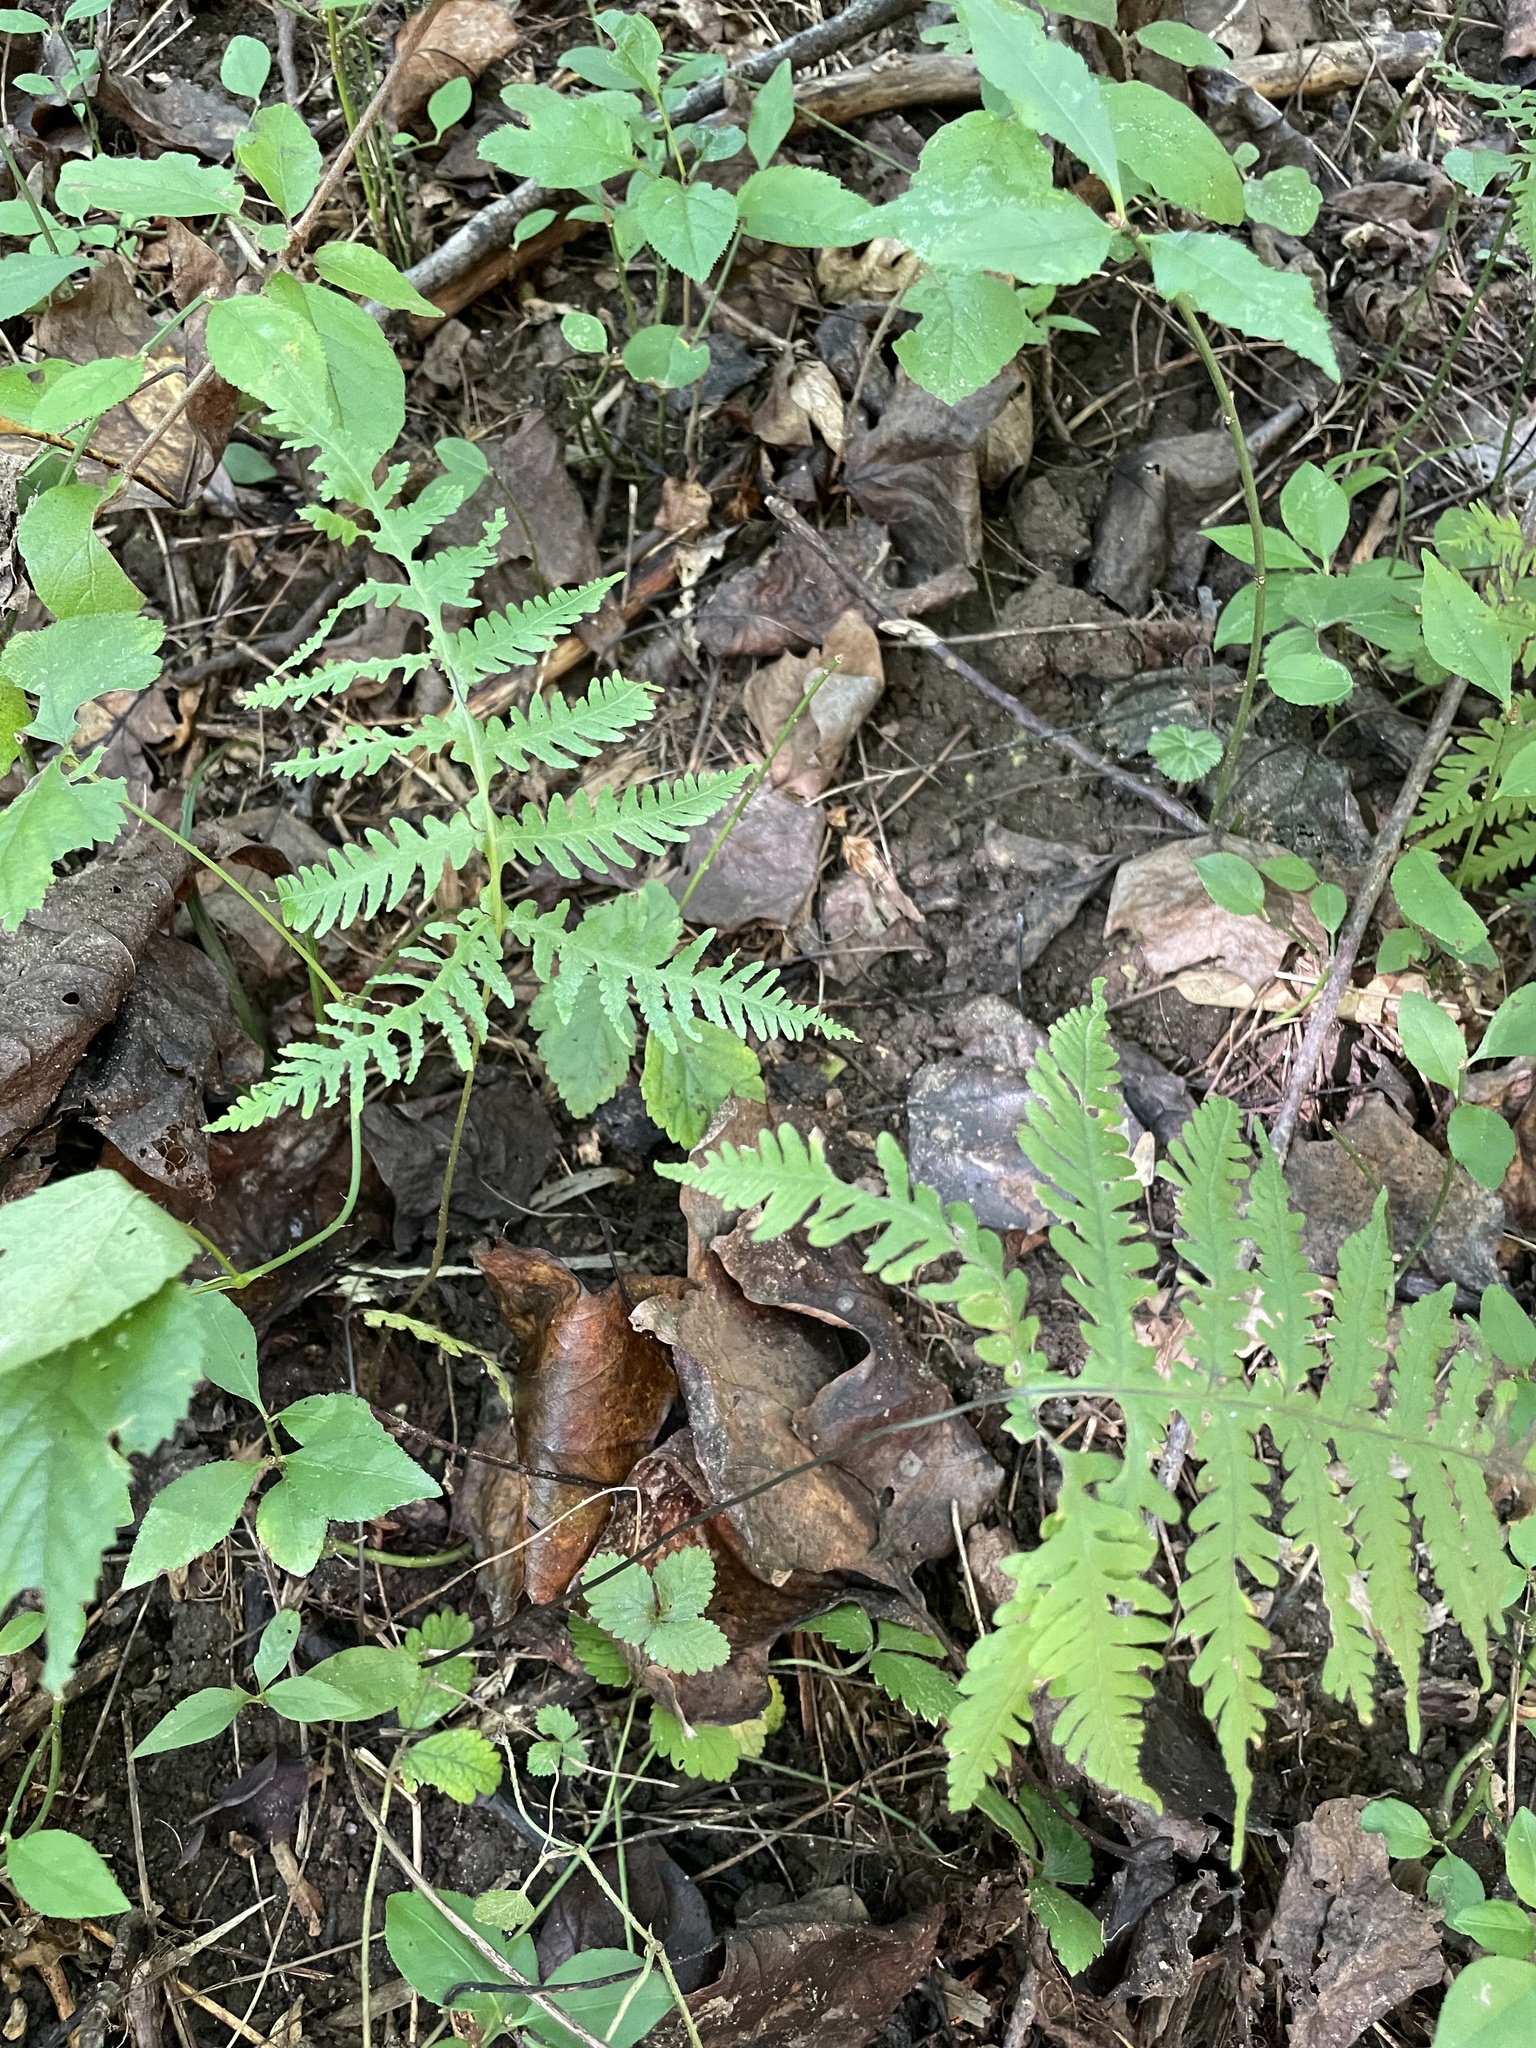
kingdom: Plantae
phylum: Tracheophyta
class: Polypodiopsida
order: Polypodiales
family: Thelypteridaceae
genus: Phegopteris
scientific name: Phegopteris hexagonoptera
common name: Broad beech fern
